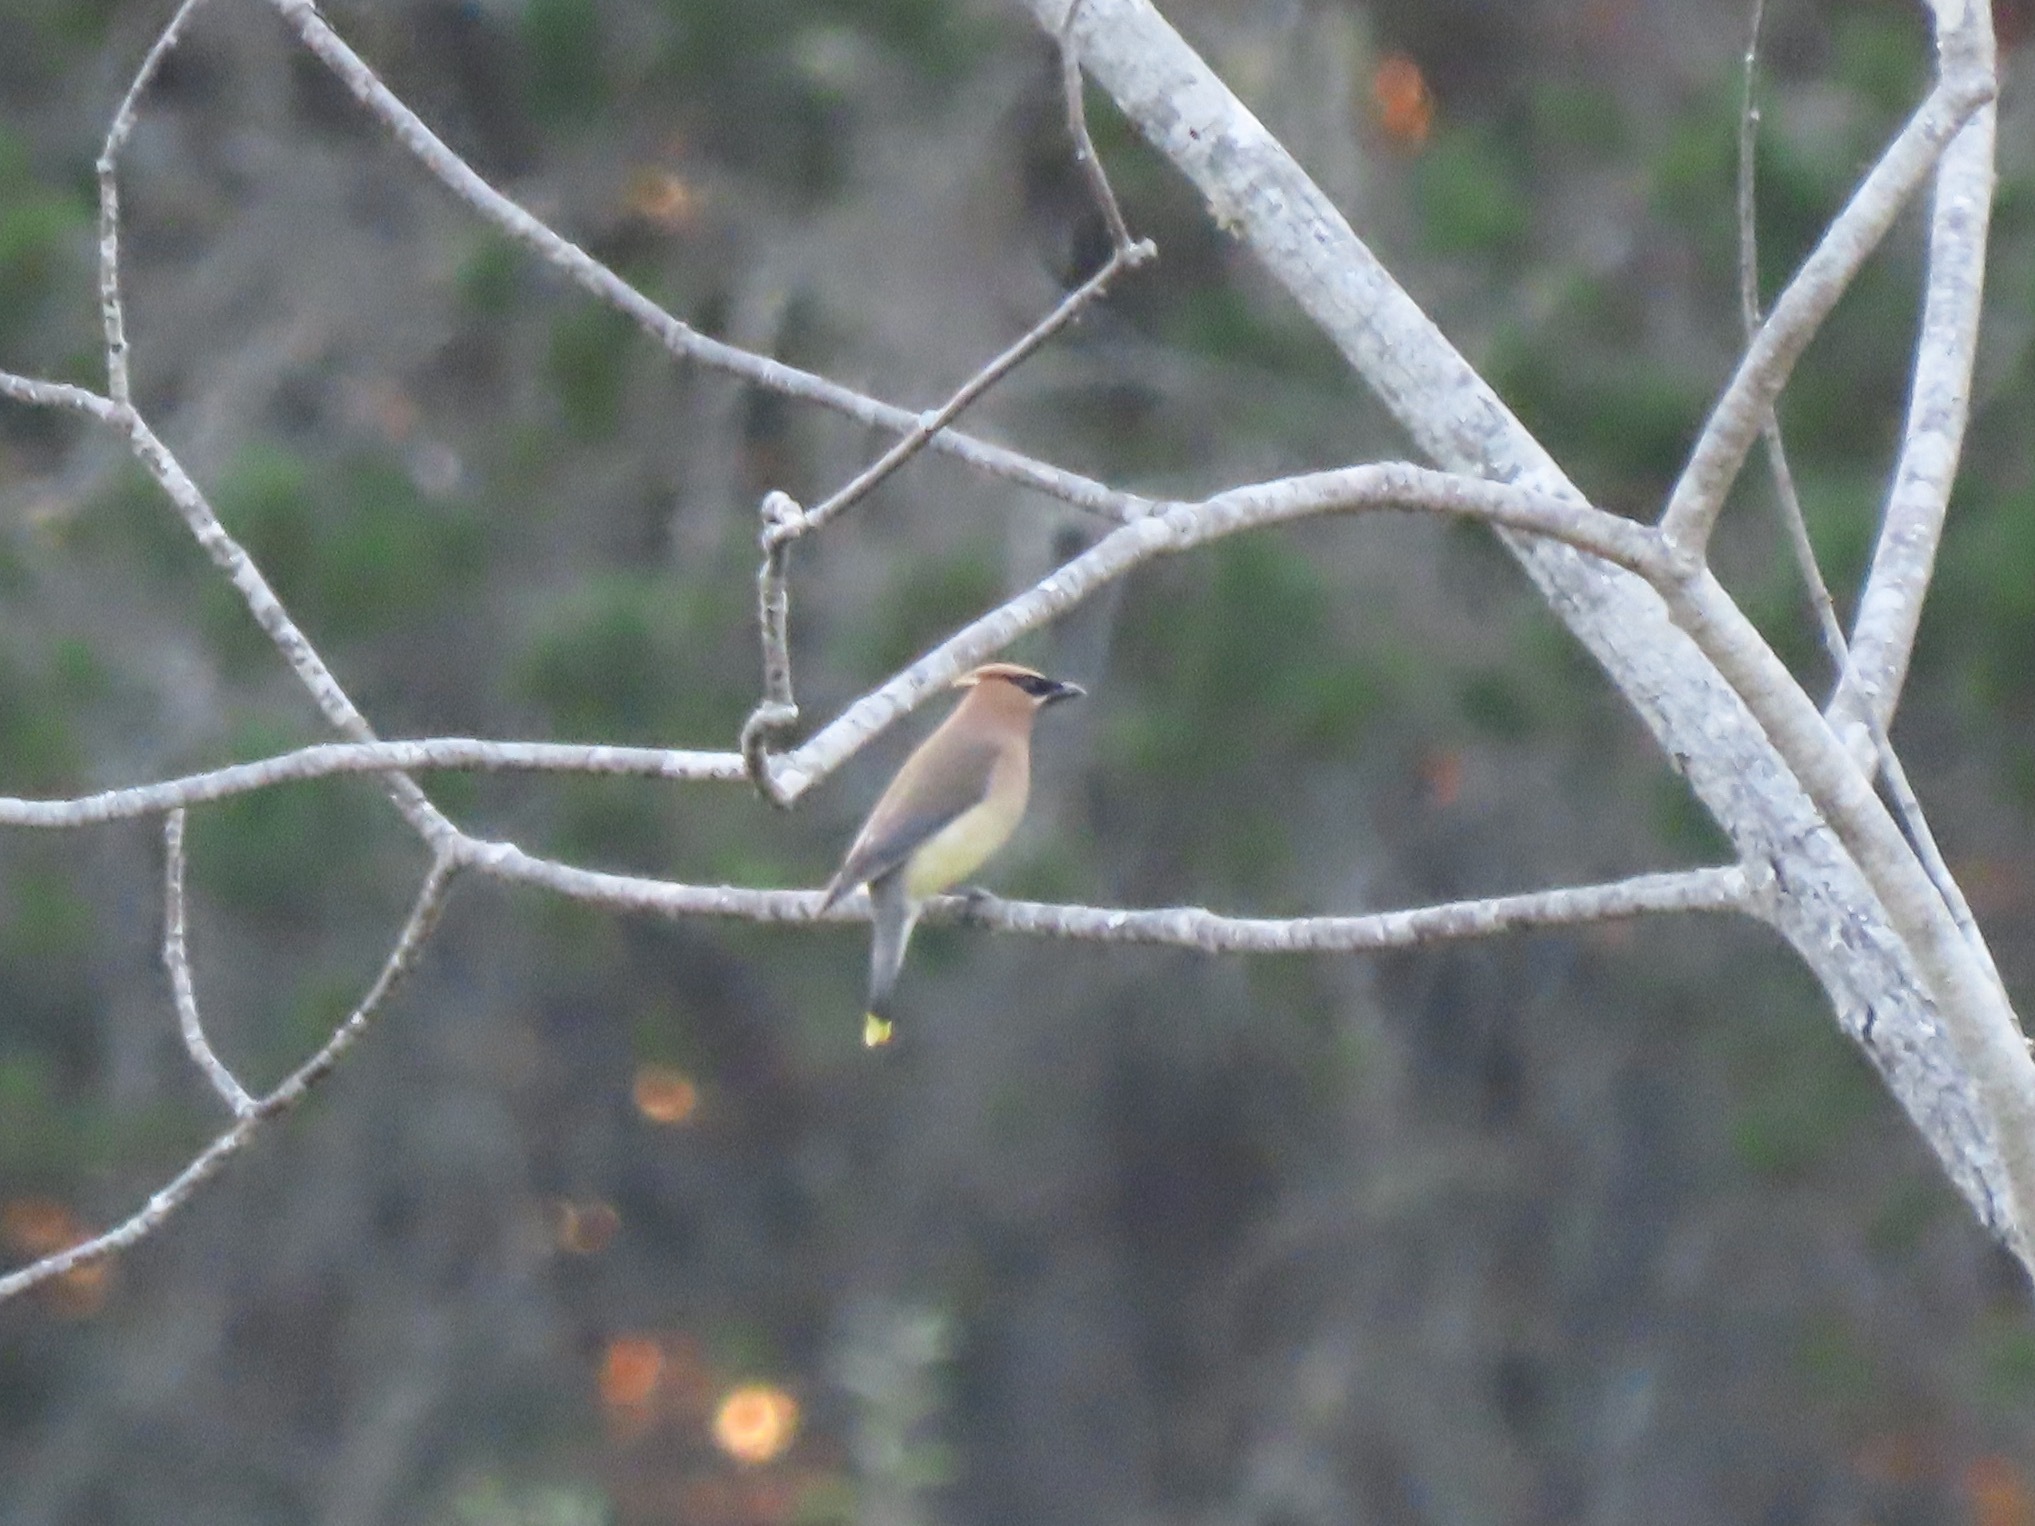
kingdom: Animalia
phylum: Chordata
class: Aves
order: Passeriformes
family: Bombycillidae
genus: Bombycilla
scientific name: Bombycilla cedrorum
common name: Cedar waxwing
